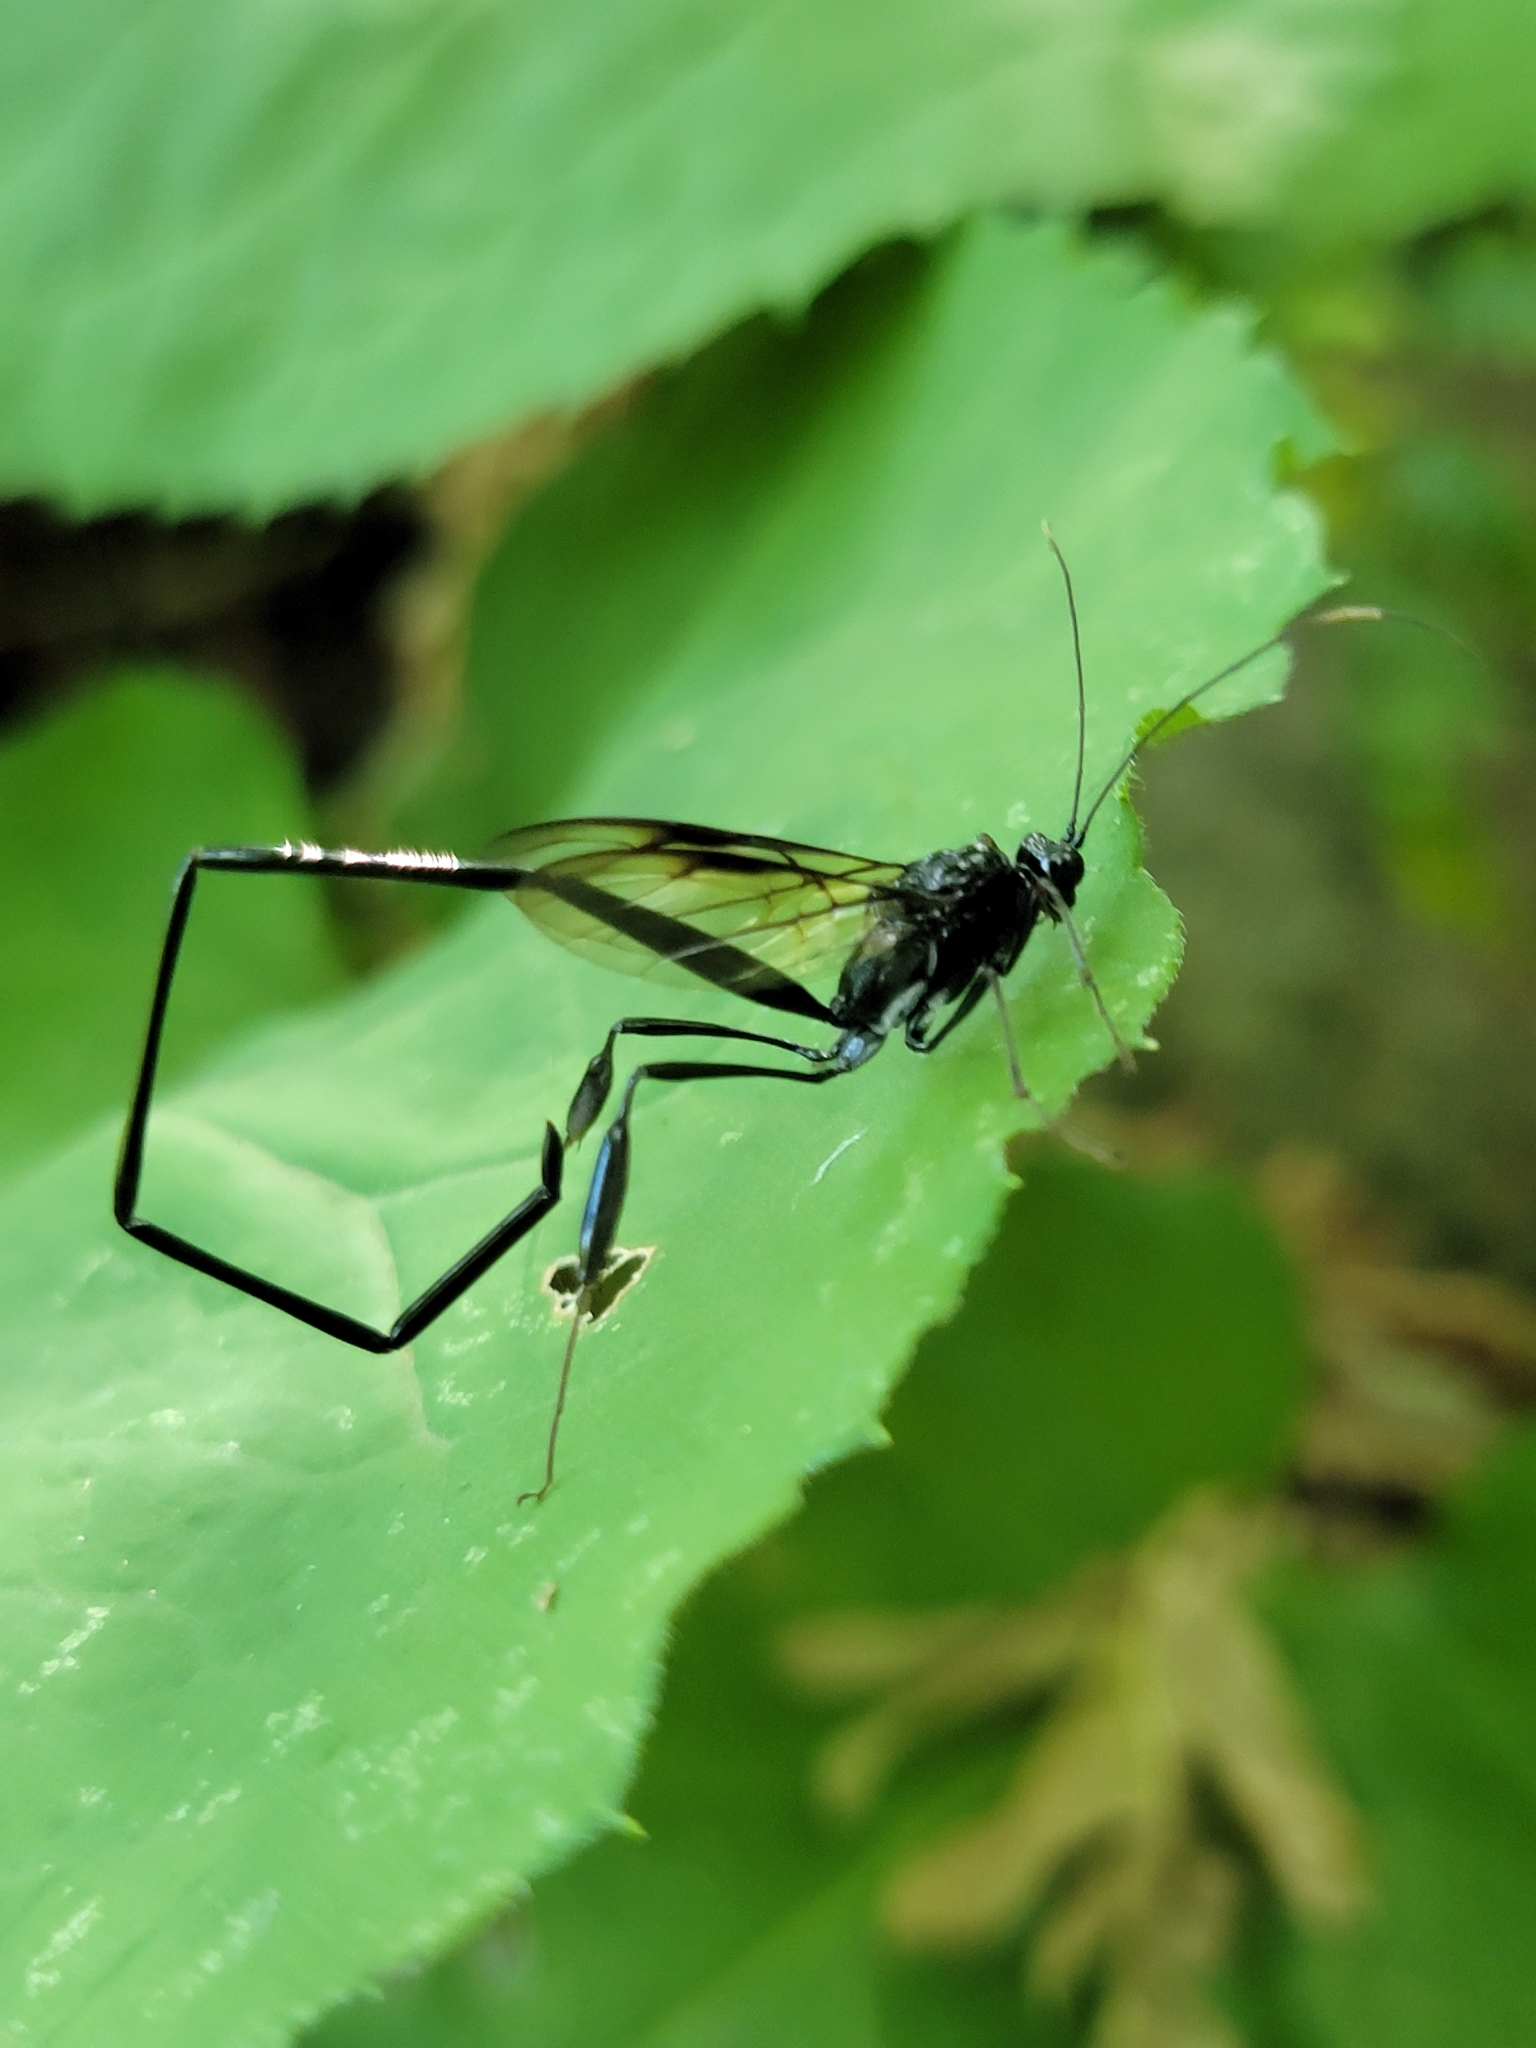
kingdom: Animalia
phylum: Arthropoda
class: Insecta
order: Hymenoptera
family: Pelecinidae
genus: Pelecinus
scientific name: Pelecinus polyturator
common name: American pelecinid wasp
